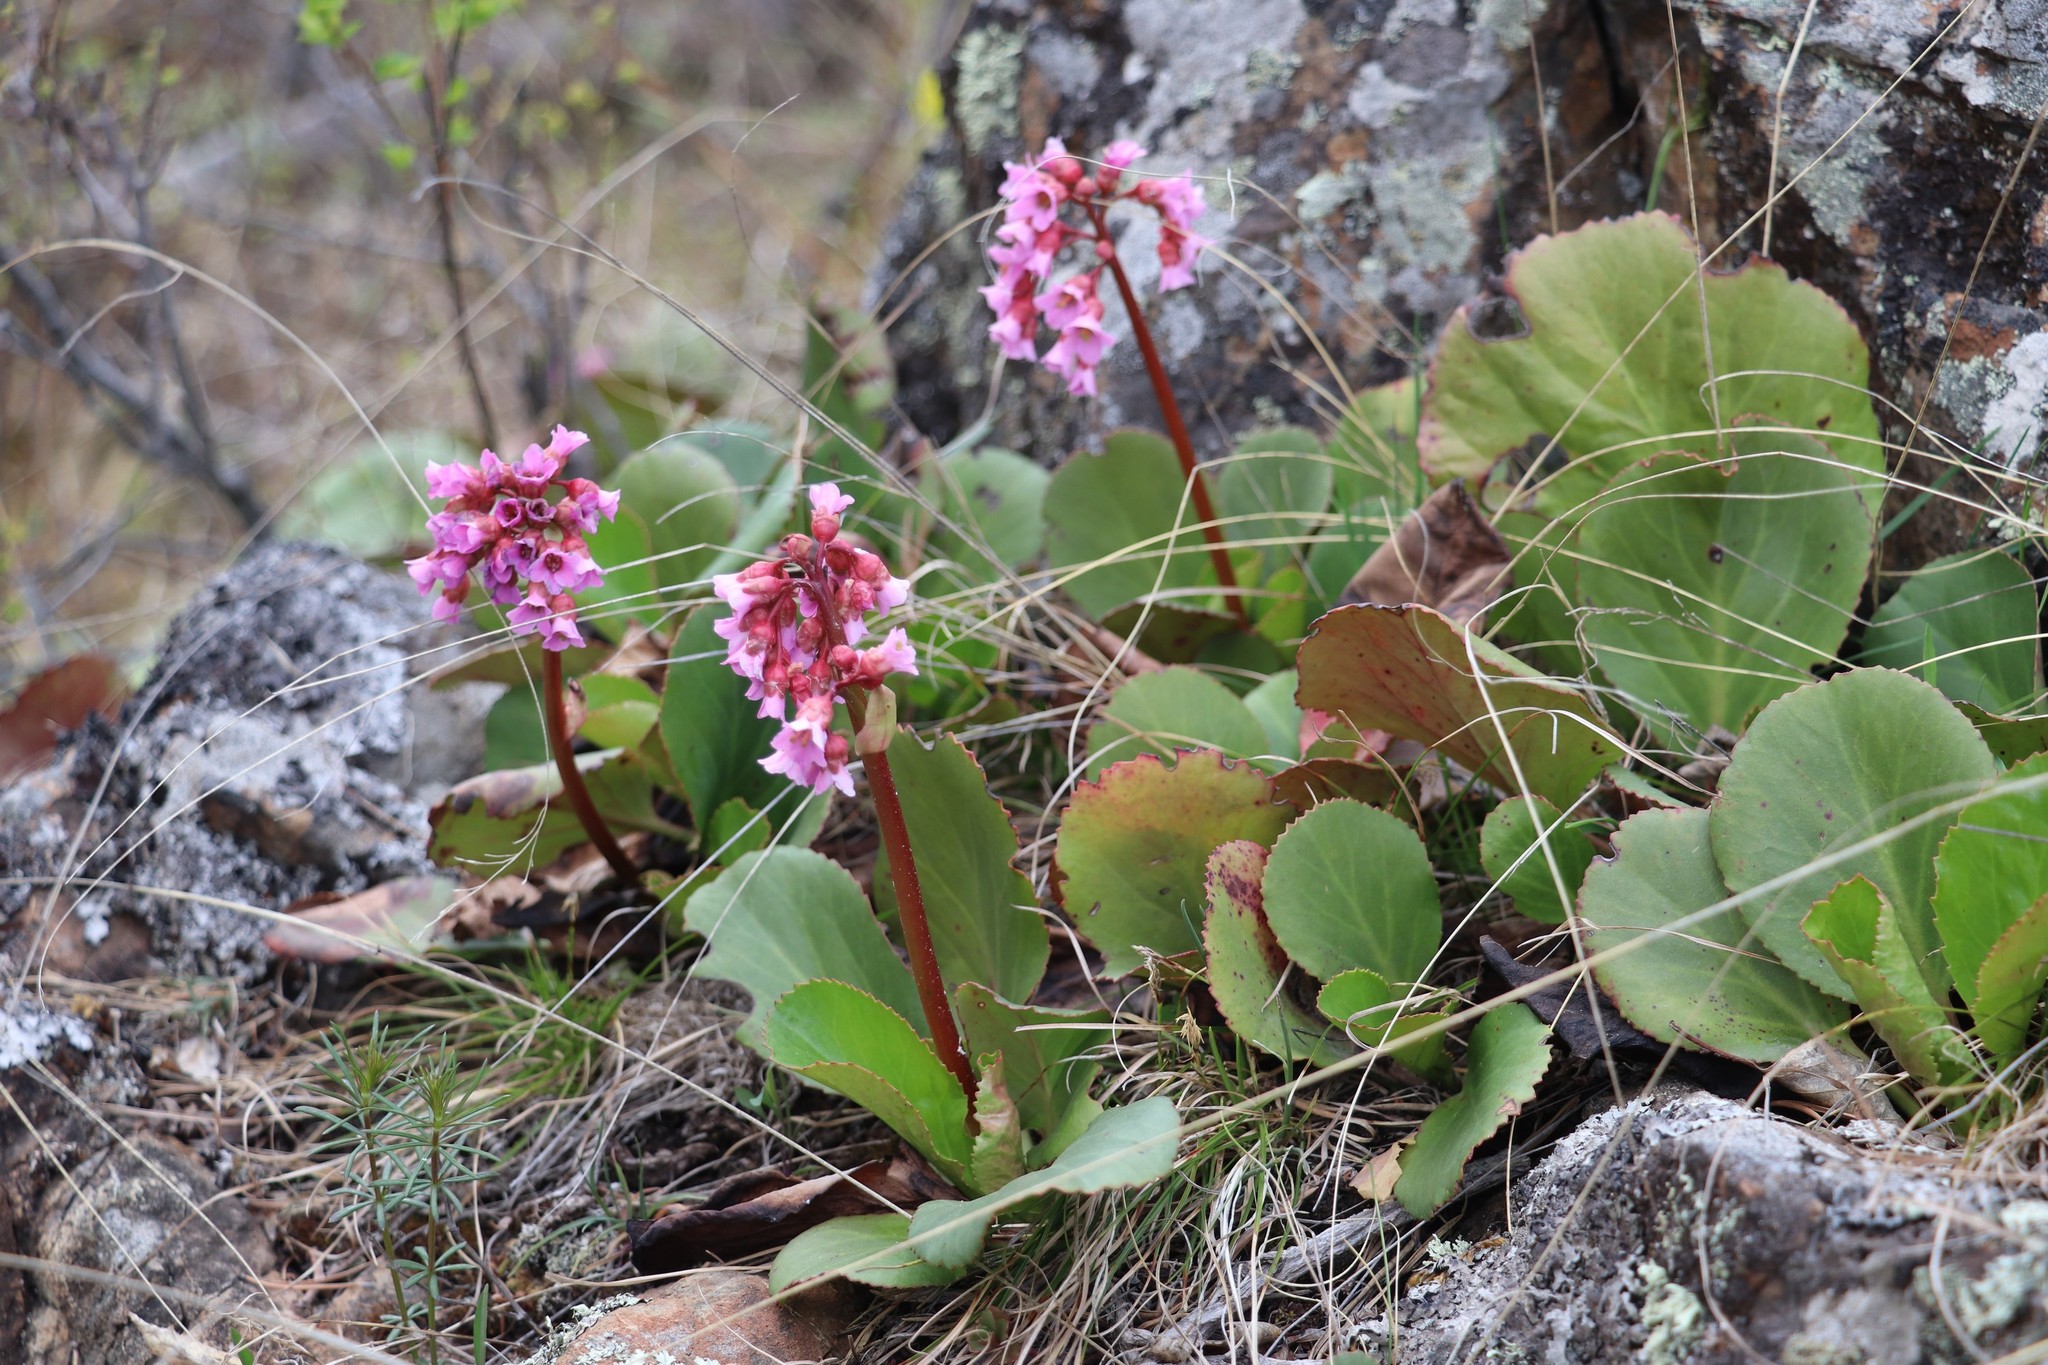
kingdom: Plantae
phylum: Tracheophyta
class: Magnoliopsida
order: Saxifragales
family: Saxifragaceae
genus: Bergenia
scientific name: Bergenia crassifolia
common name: Elephant-ears
